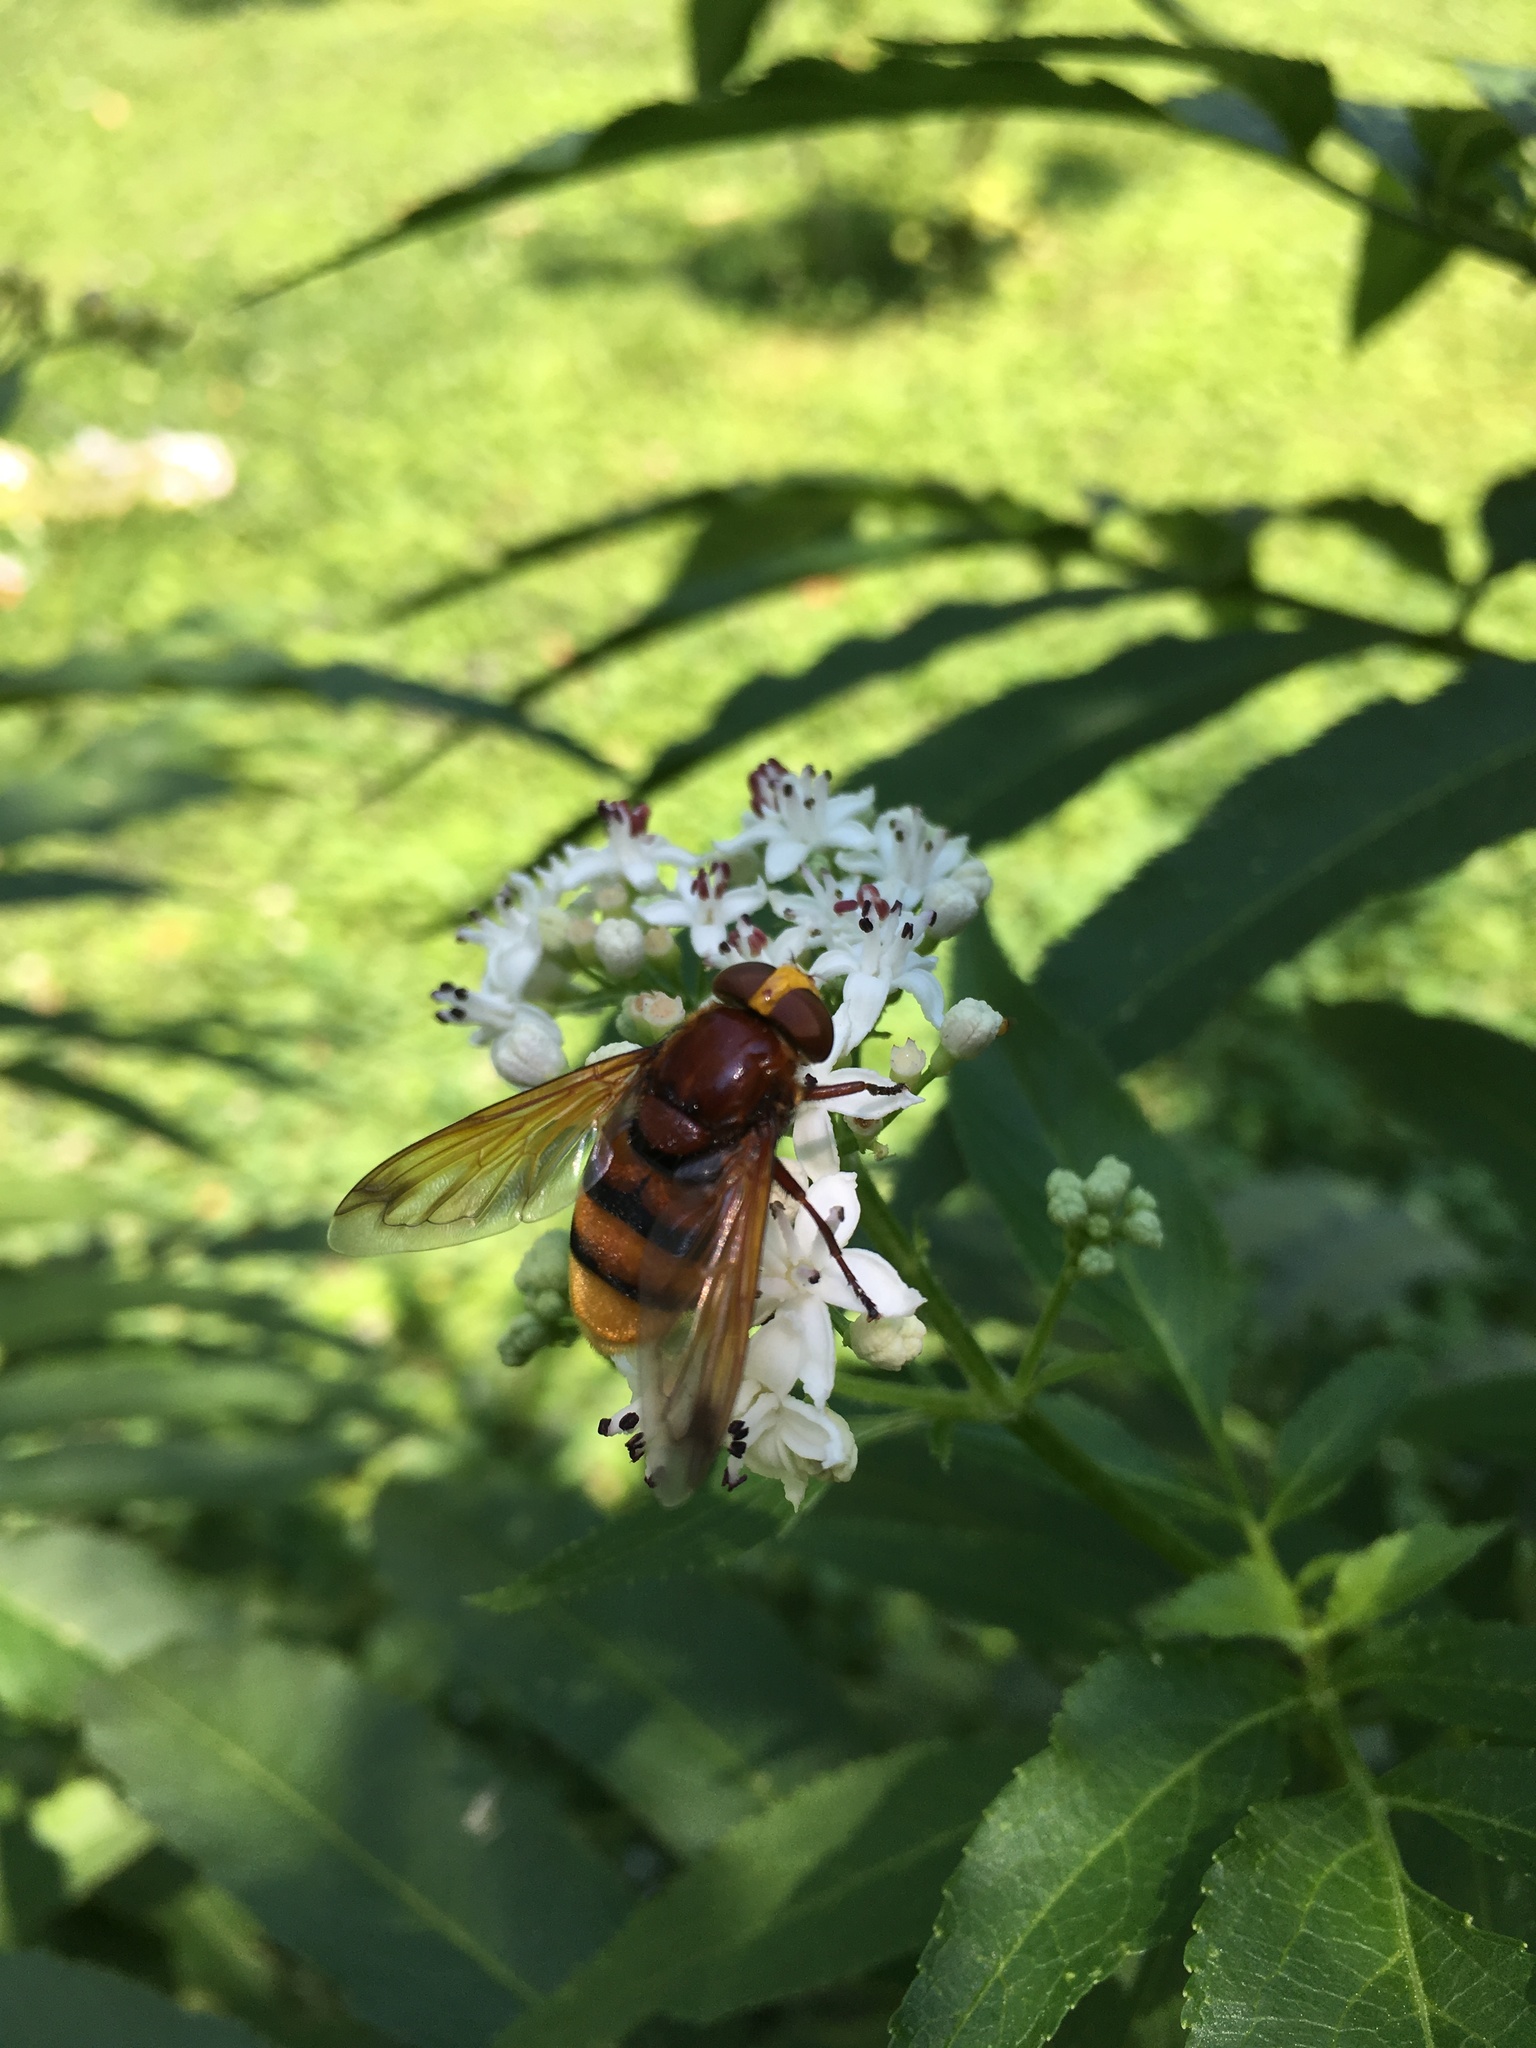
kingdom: Animalia
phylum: Arthropoda
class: Insecta
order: Diptera
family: Syrphidae
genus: Volucella
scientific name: Volucella zonaria
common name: Hornet hoverfly
